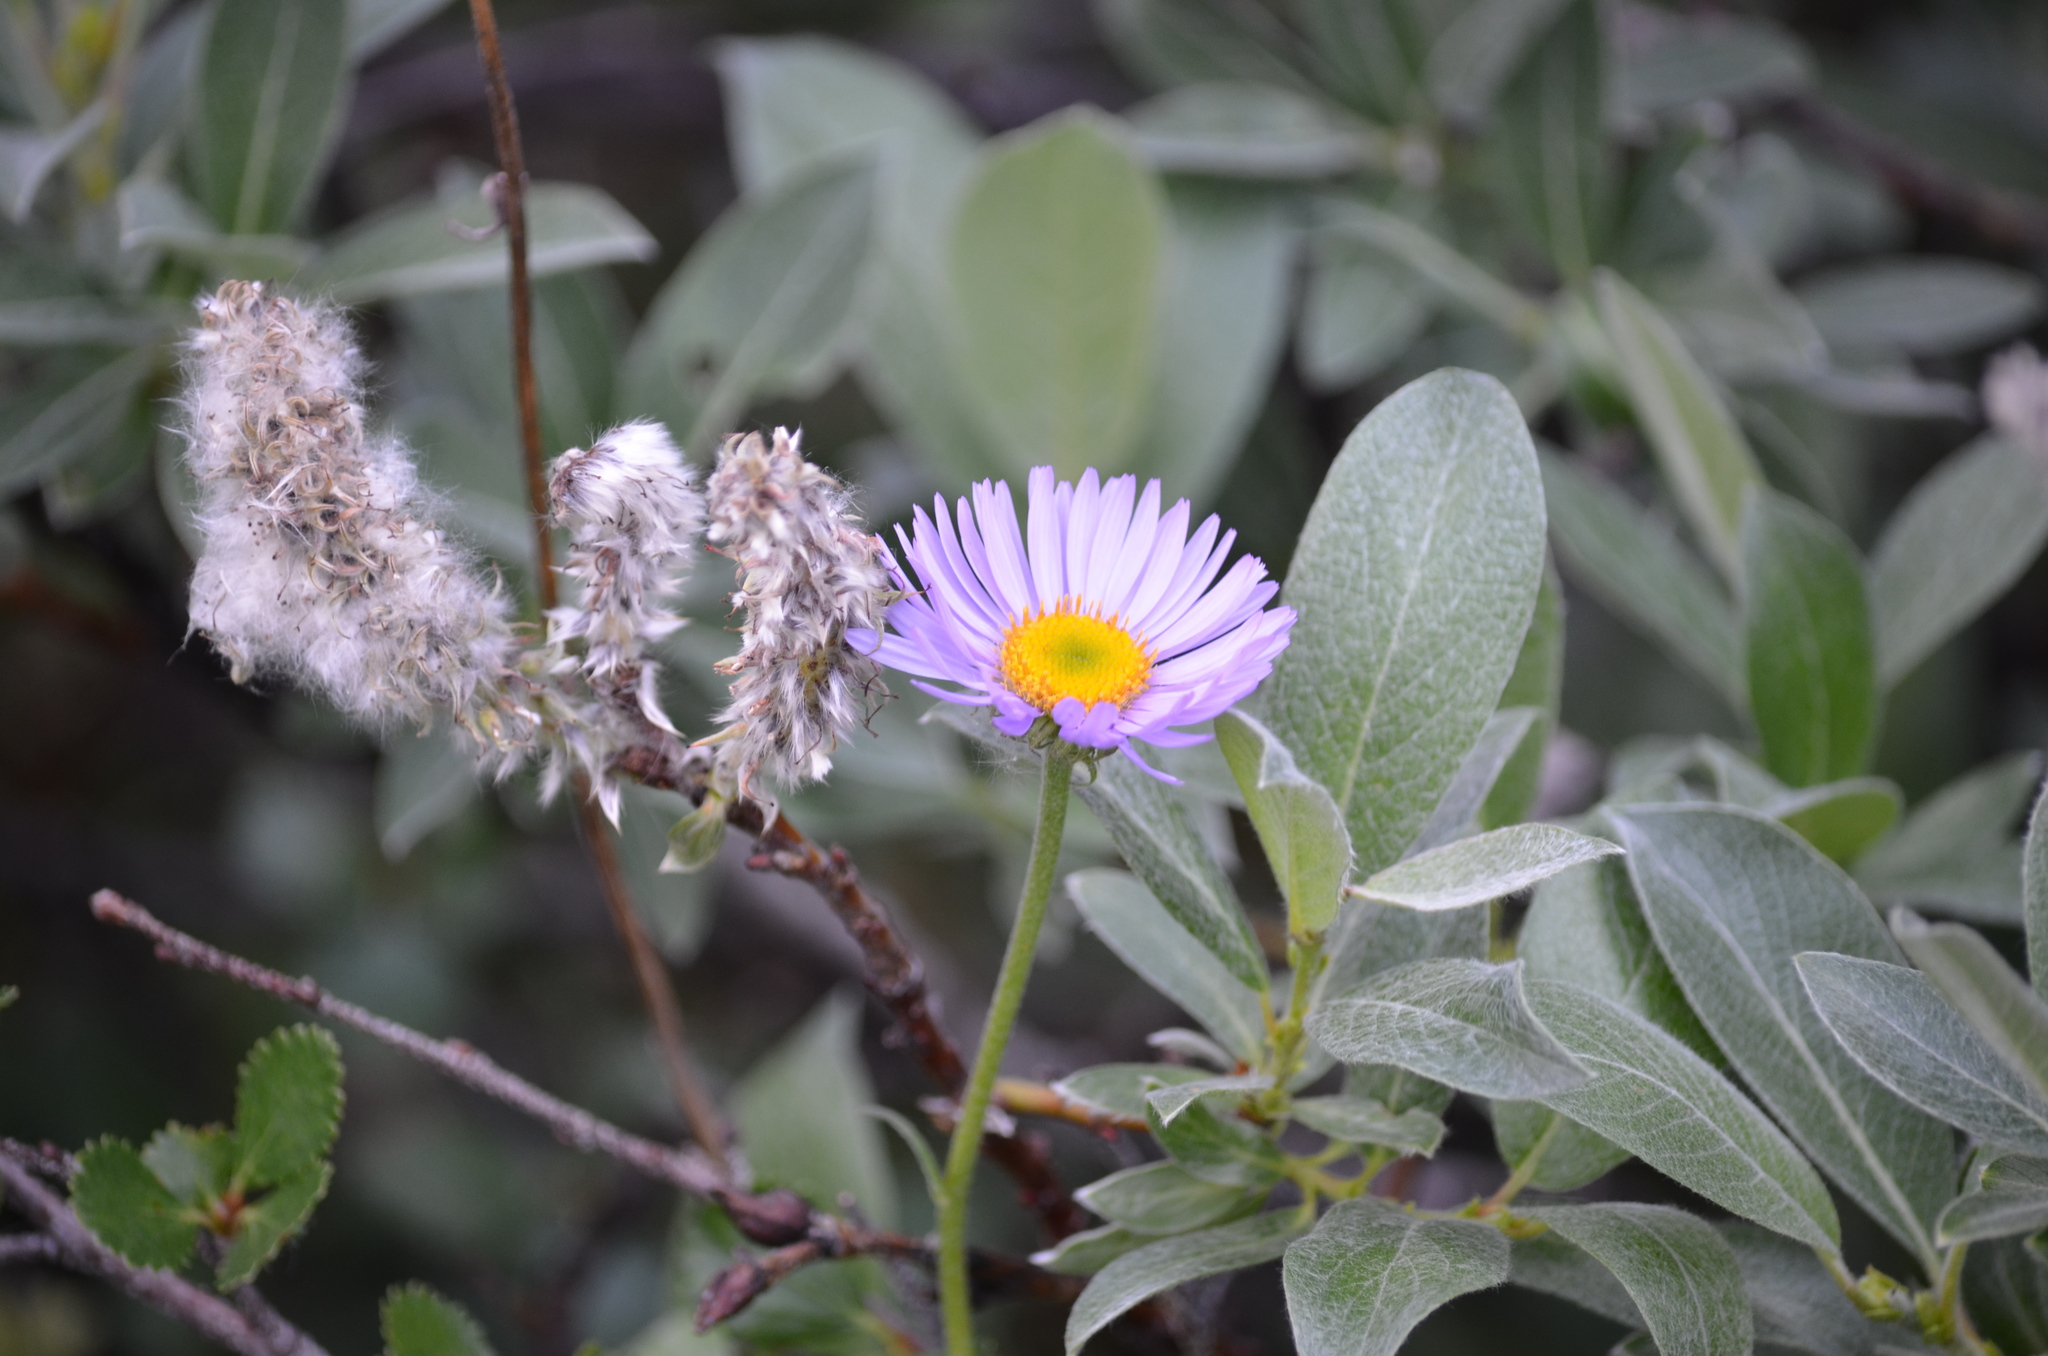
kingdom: Plantae
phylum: Tracheophyta
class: Magnoliopsida
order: Asterales
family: Asteraceae
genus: Erigeron
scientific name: Erigeron
